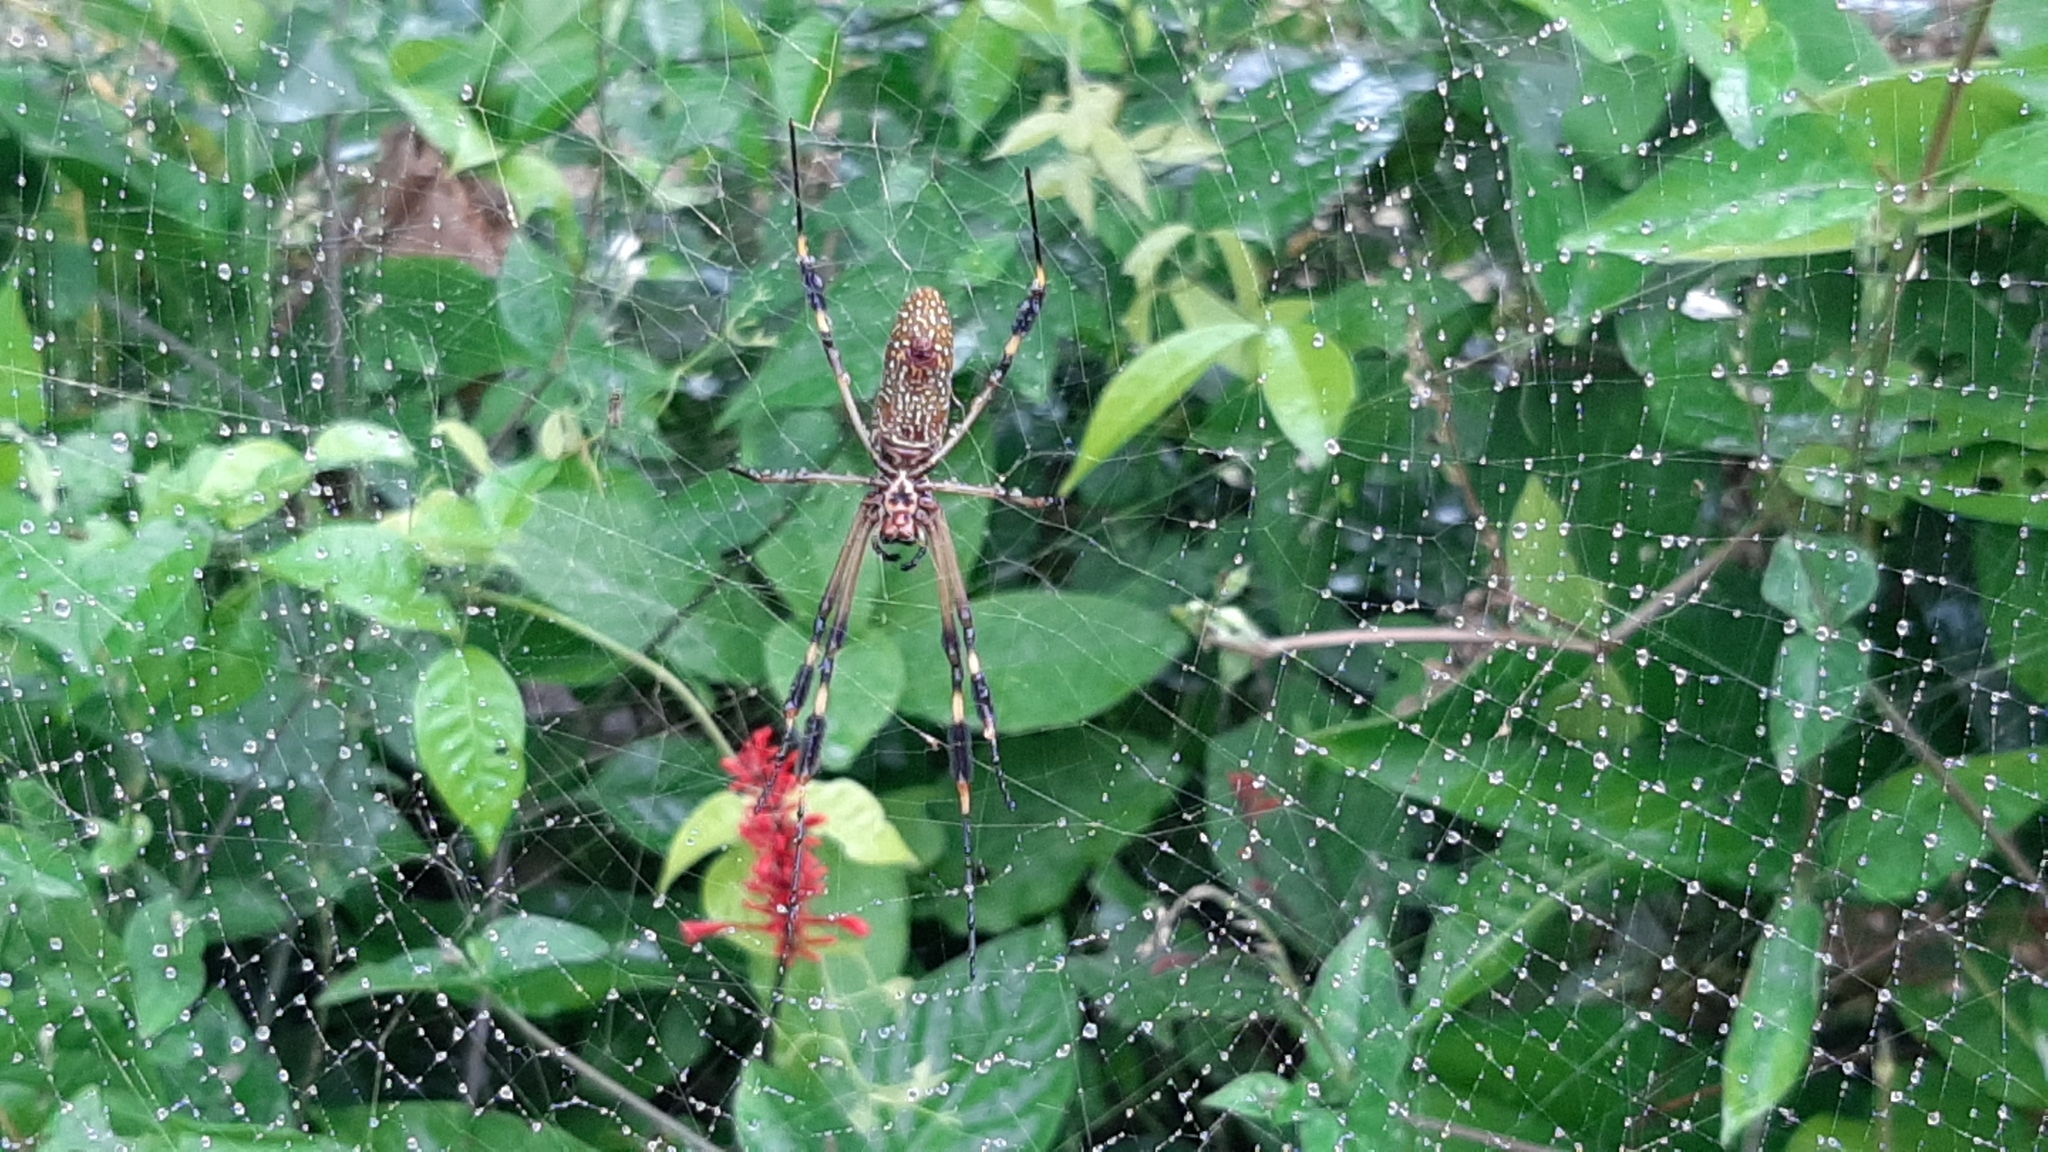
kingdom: Animalia
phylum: Arthropoda
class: Arachnida
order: Araneae
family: Araneidae
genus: Trichonephila
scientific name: Trichonephila clavipes
